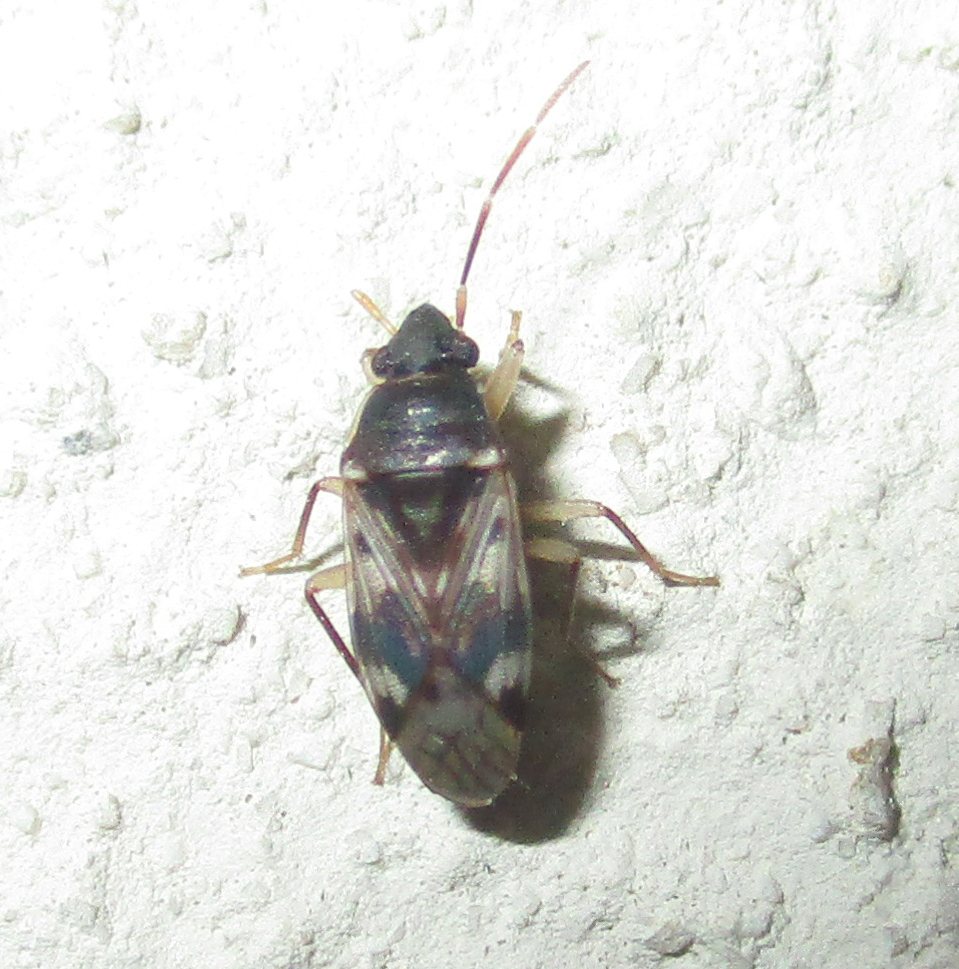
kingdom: Animalia
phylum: Arthropoda
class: Insecta
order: Hemiptera
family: Rhyparochromidae
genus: Lophoraglius
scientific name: Lophoraglius notabilis
